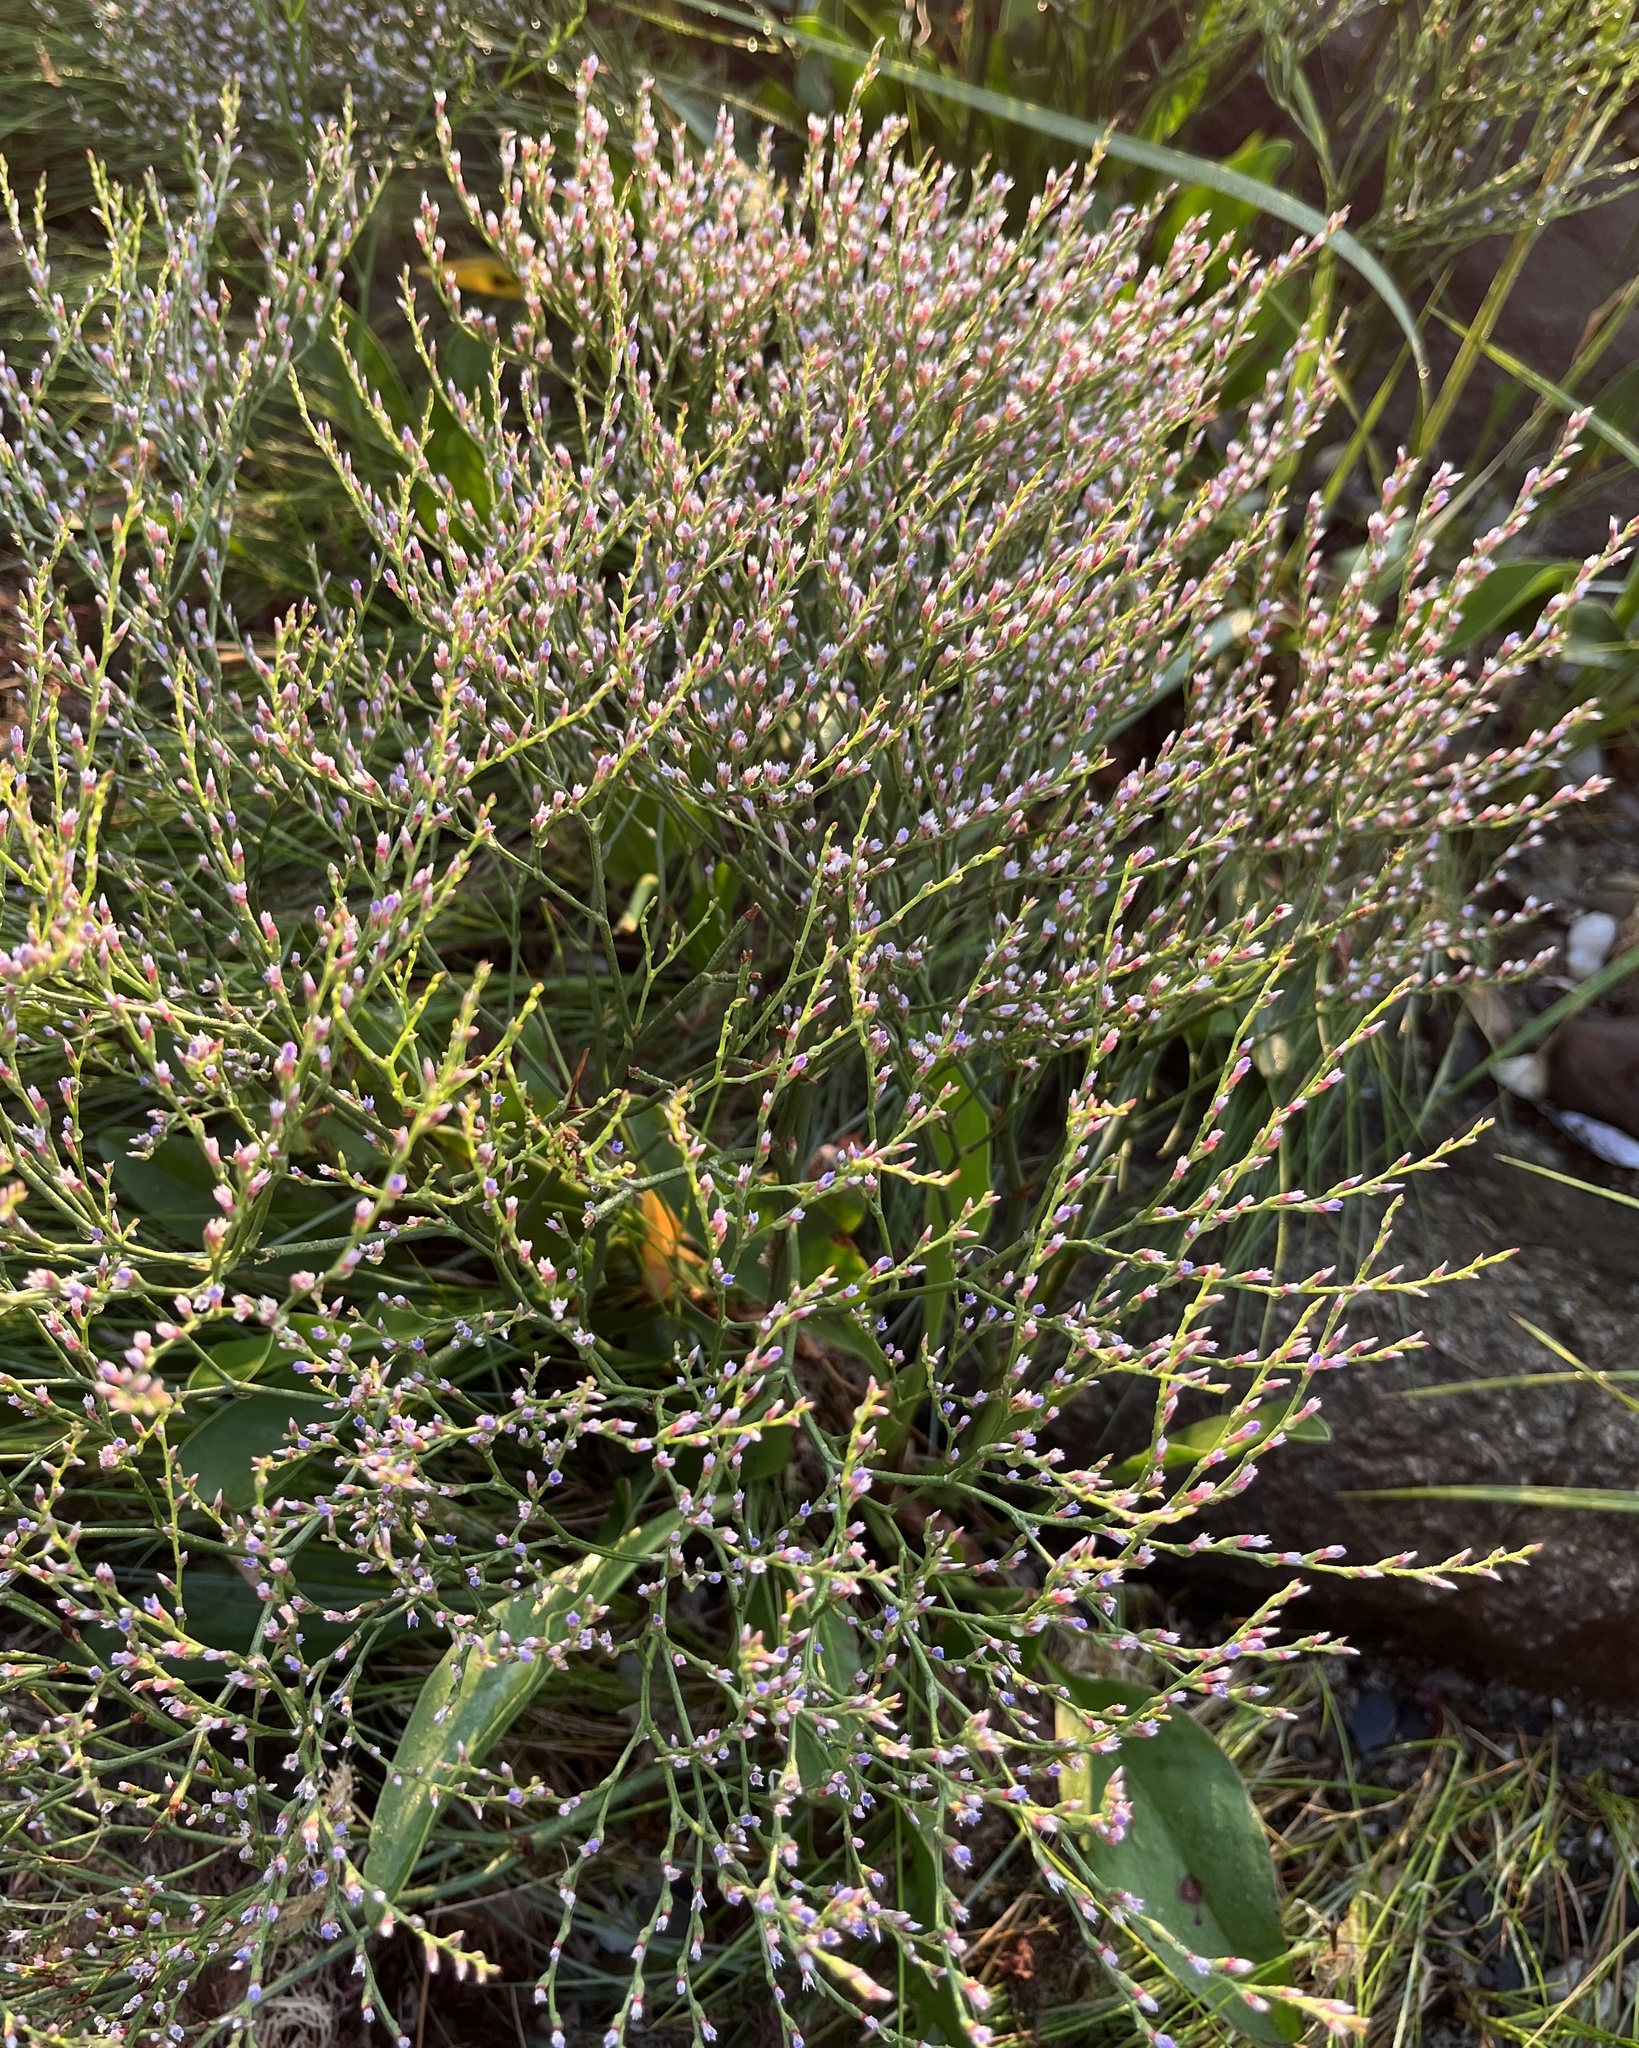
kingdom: Plantae
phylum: Tracheophyta
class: Magnoliopsida
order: Caryophyllales
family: Plumbaginaceae
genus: Limonium
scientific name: Limonium carolinianum
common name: Carolina sea lavender
